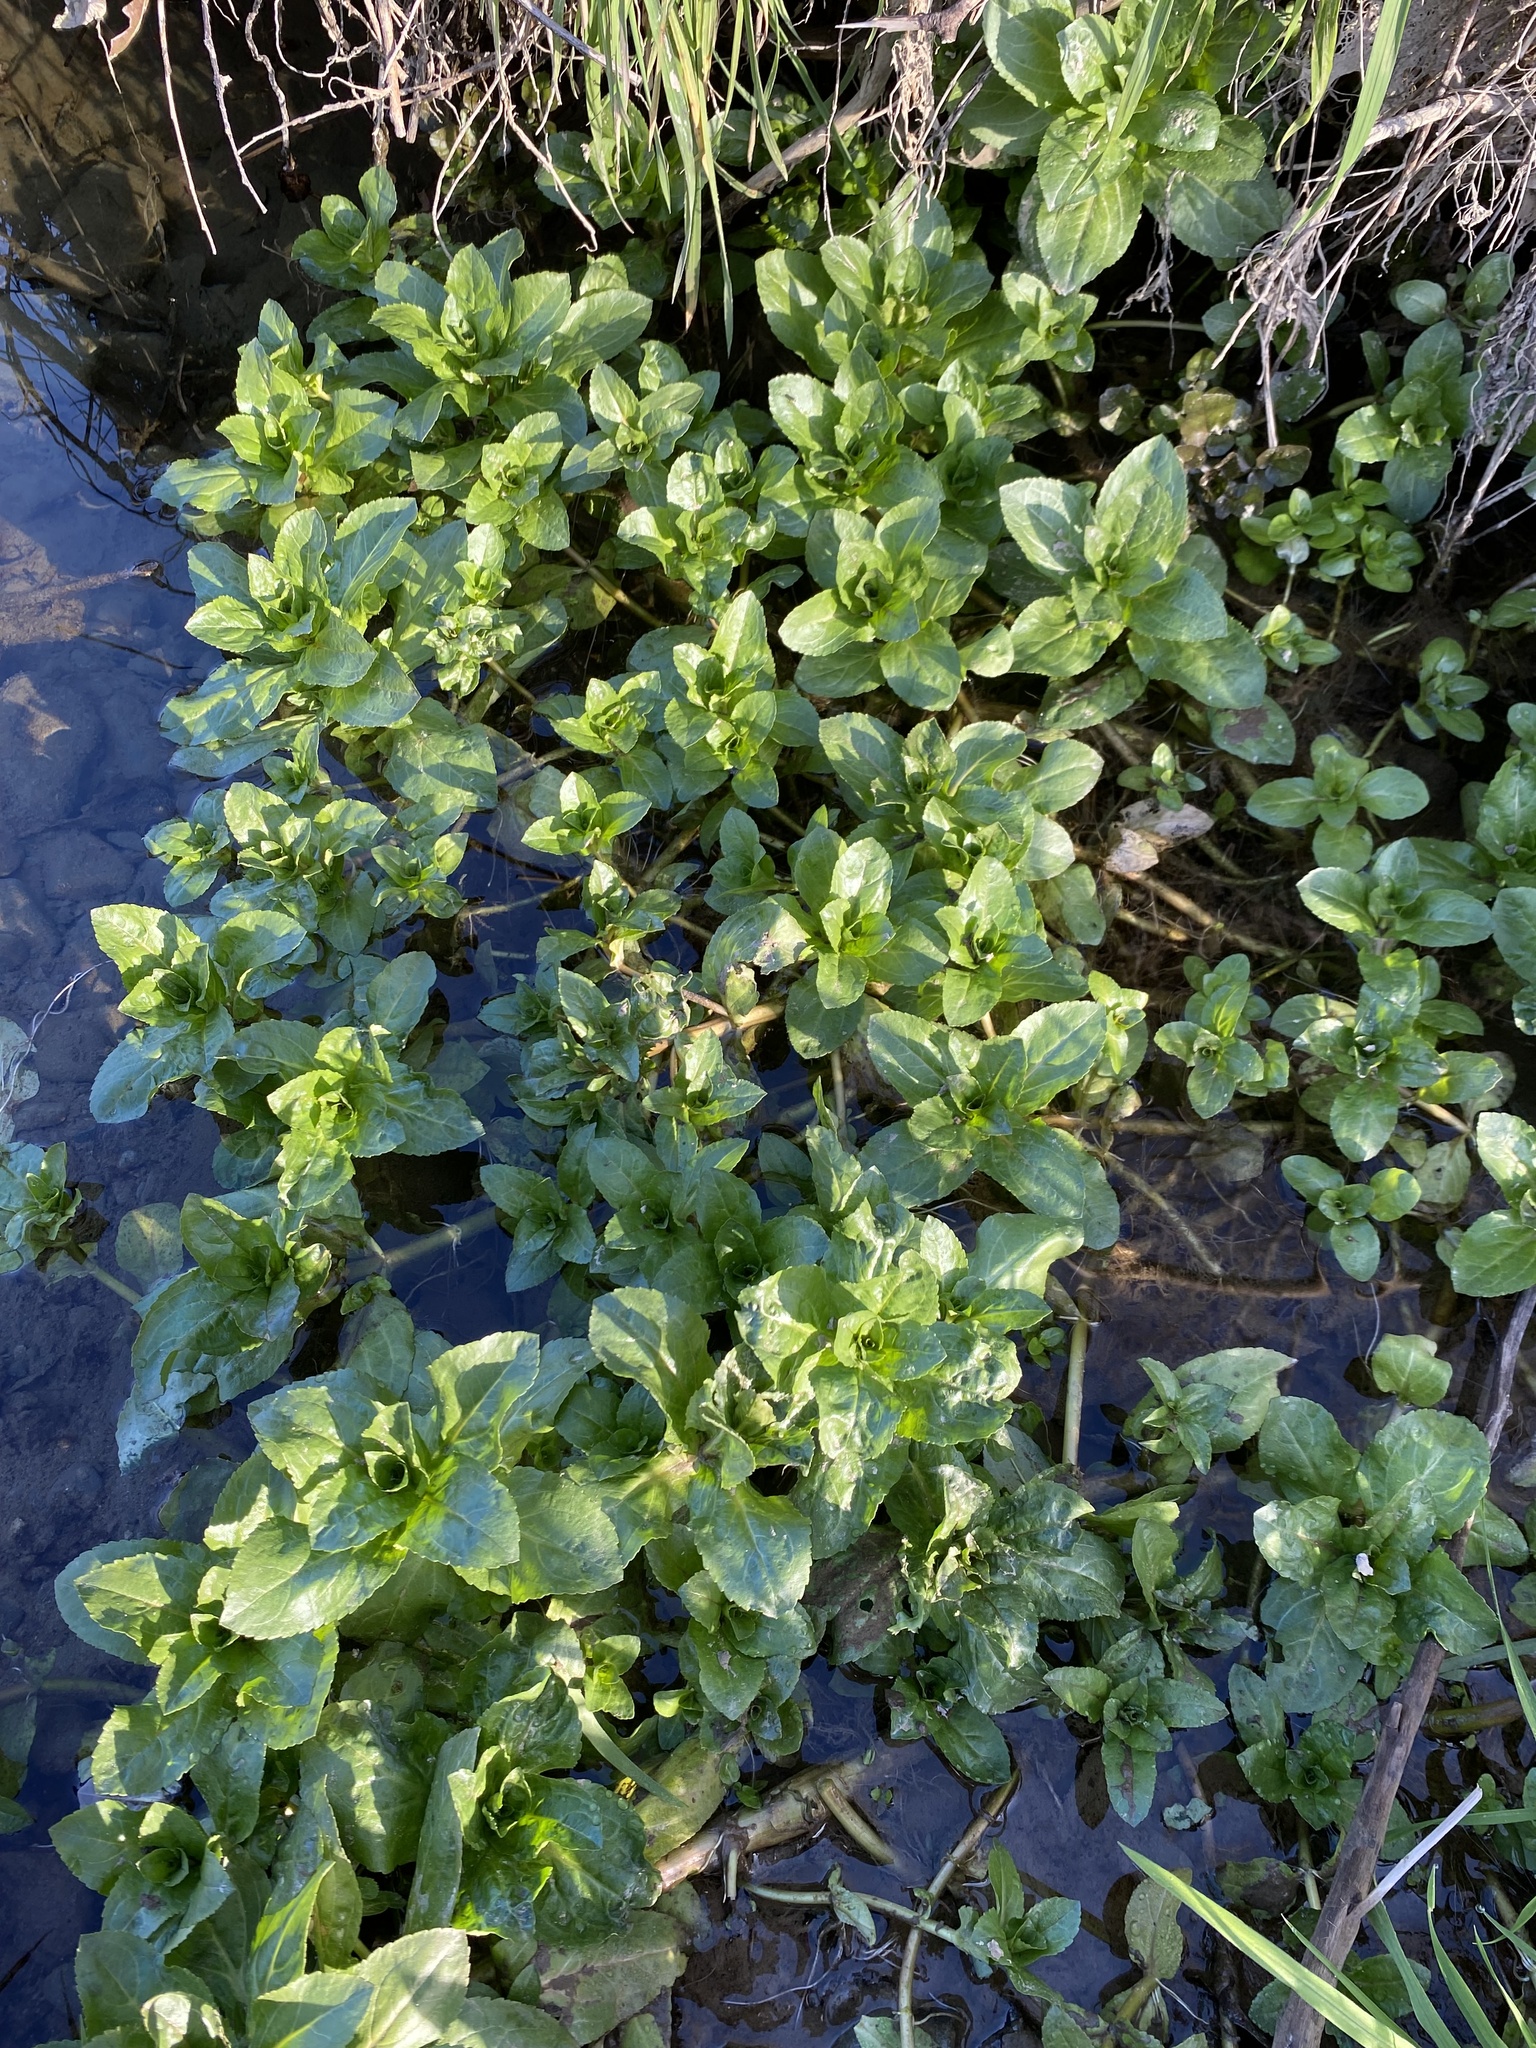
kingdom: Plantae
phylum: Tracheophyta
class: Magnoliopsida
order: Lamiales
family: Phrymaceae
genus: Erythranthe
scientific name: Erythranthe guttata
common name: Monkeyflower
